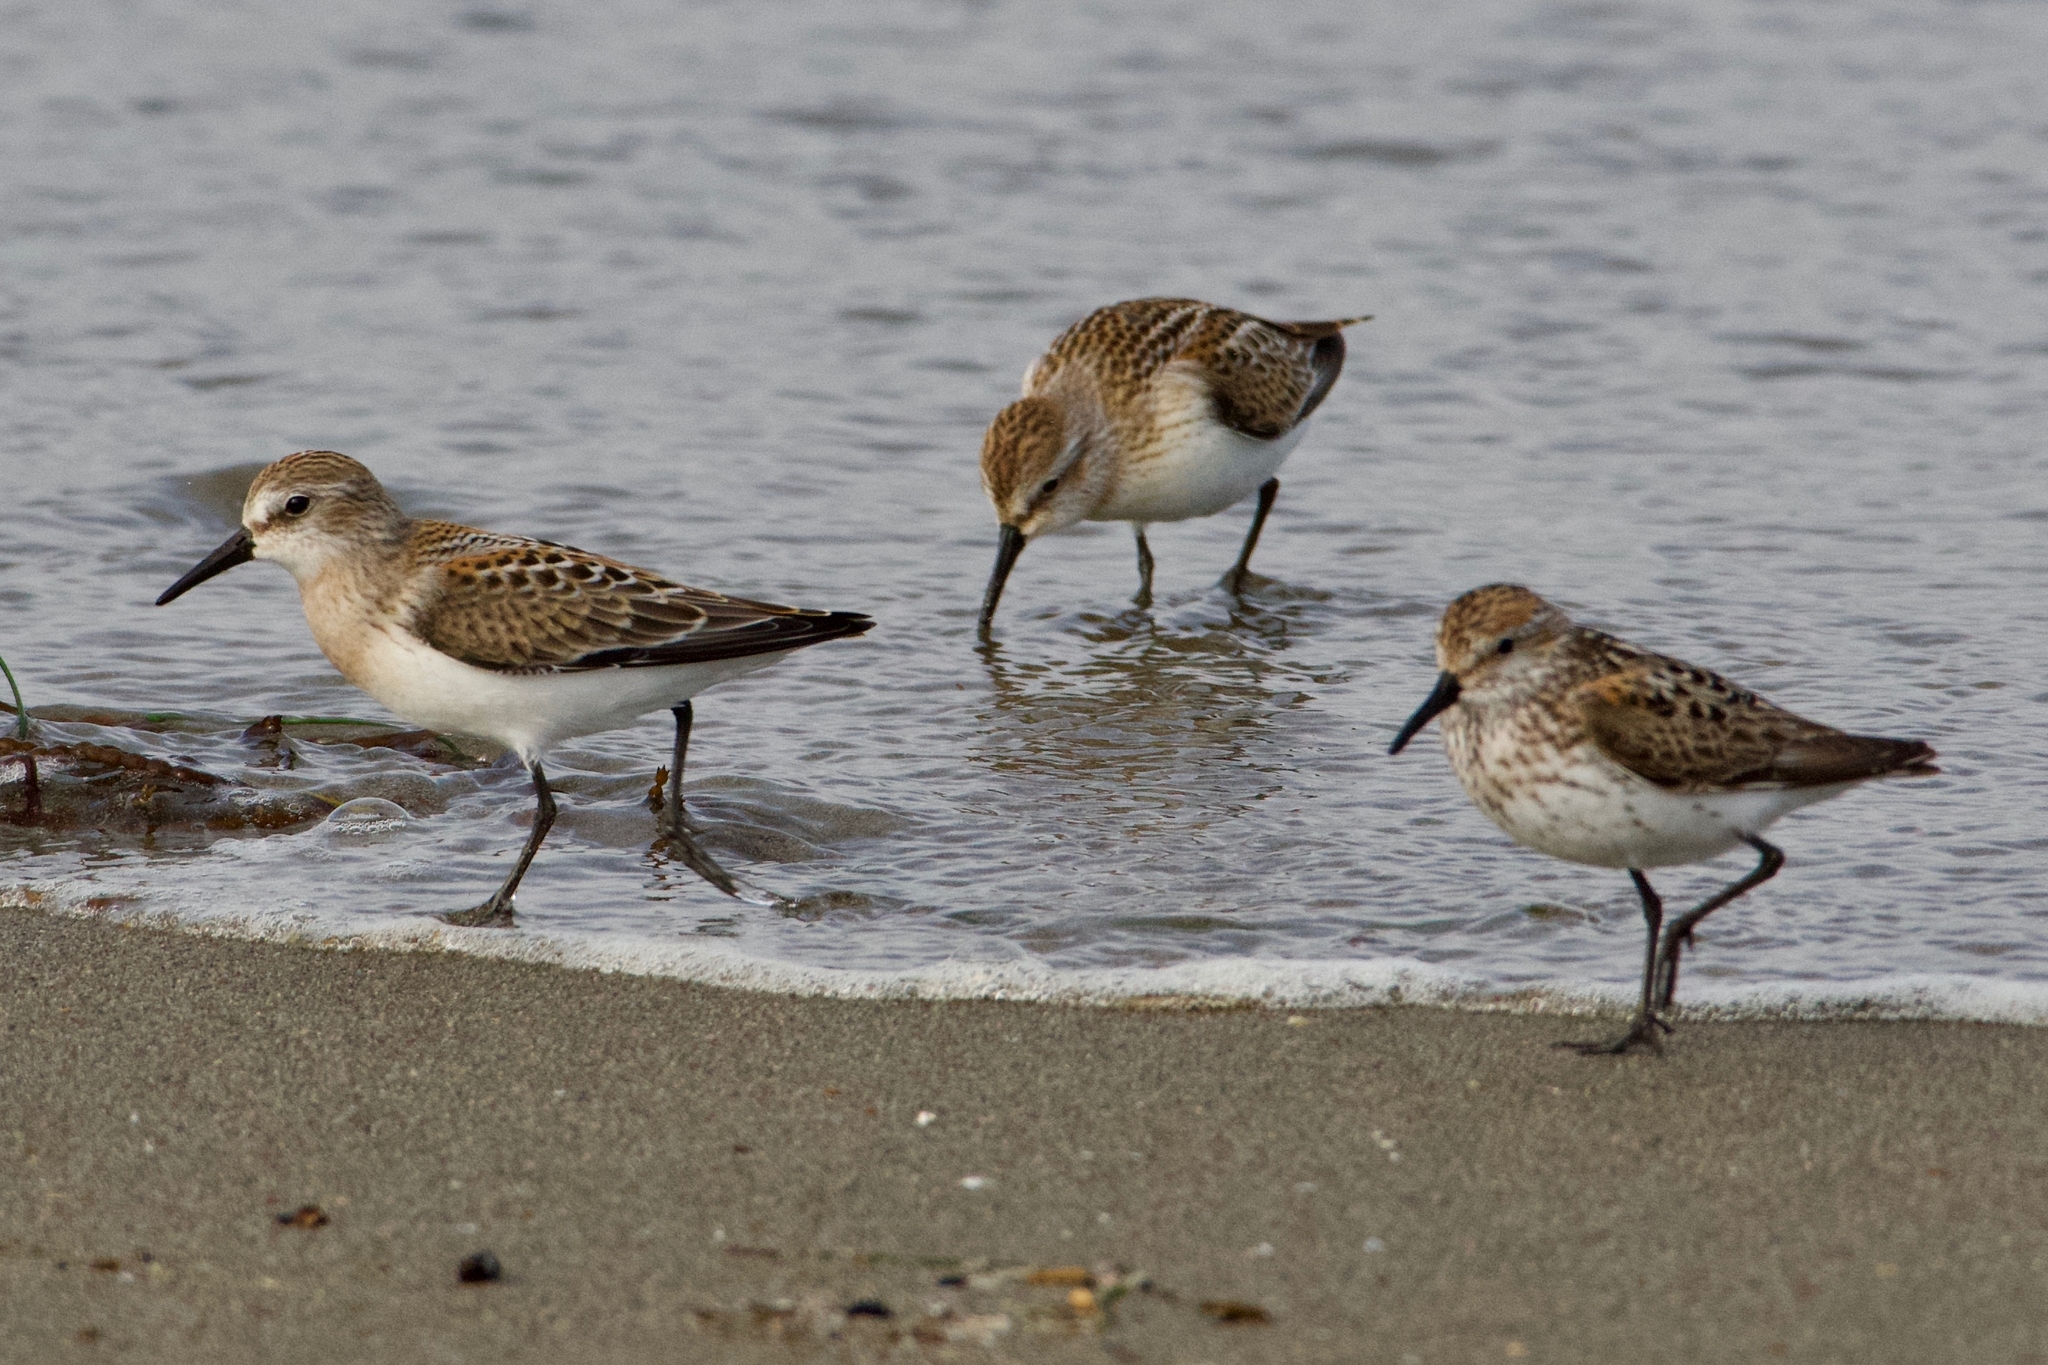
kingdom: Animalia
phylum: Chordata
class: Aves
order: Charadriiformes
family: Scolopacidae
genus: Calidris
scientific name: Calidris mauri
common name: Western sandpiper
